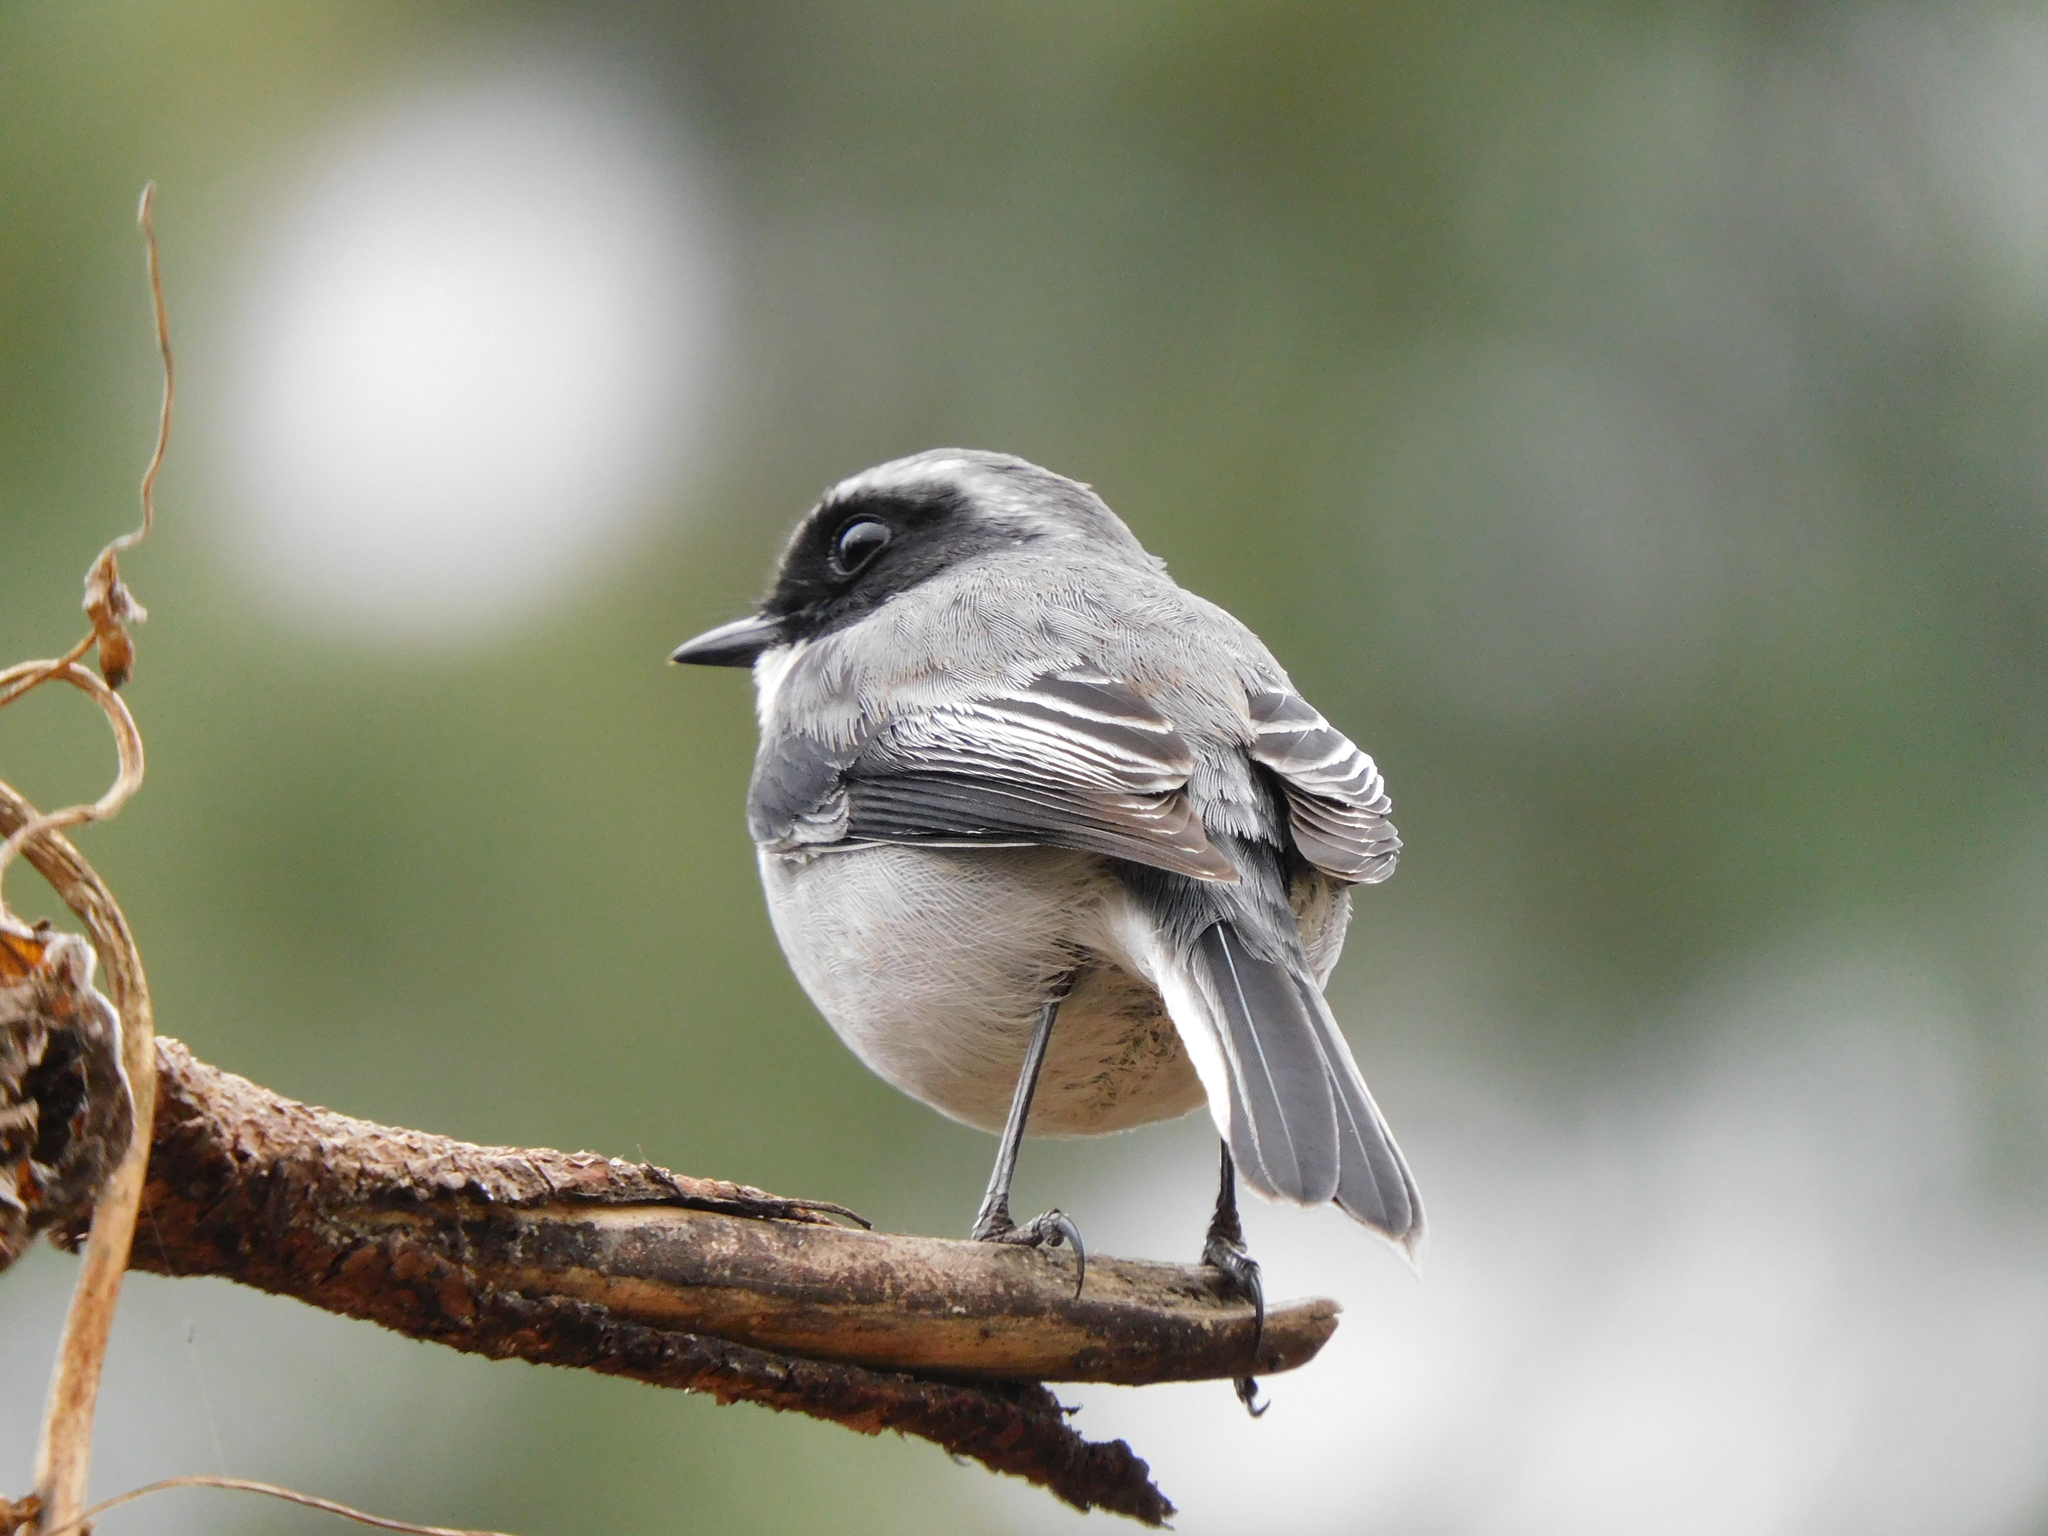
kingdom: Animalia
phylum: Chordata
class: Aves
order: Passeriformes
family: Muscicapidae
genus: Saxicola
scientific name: Saxicola ferreus
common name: Grey bush chat
